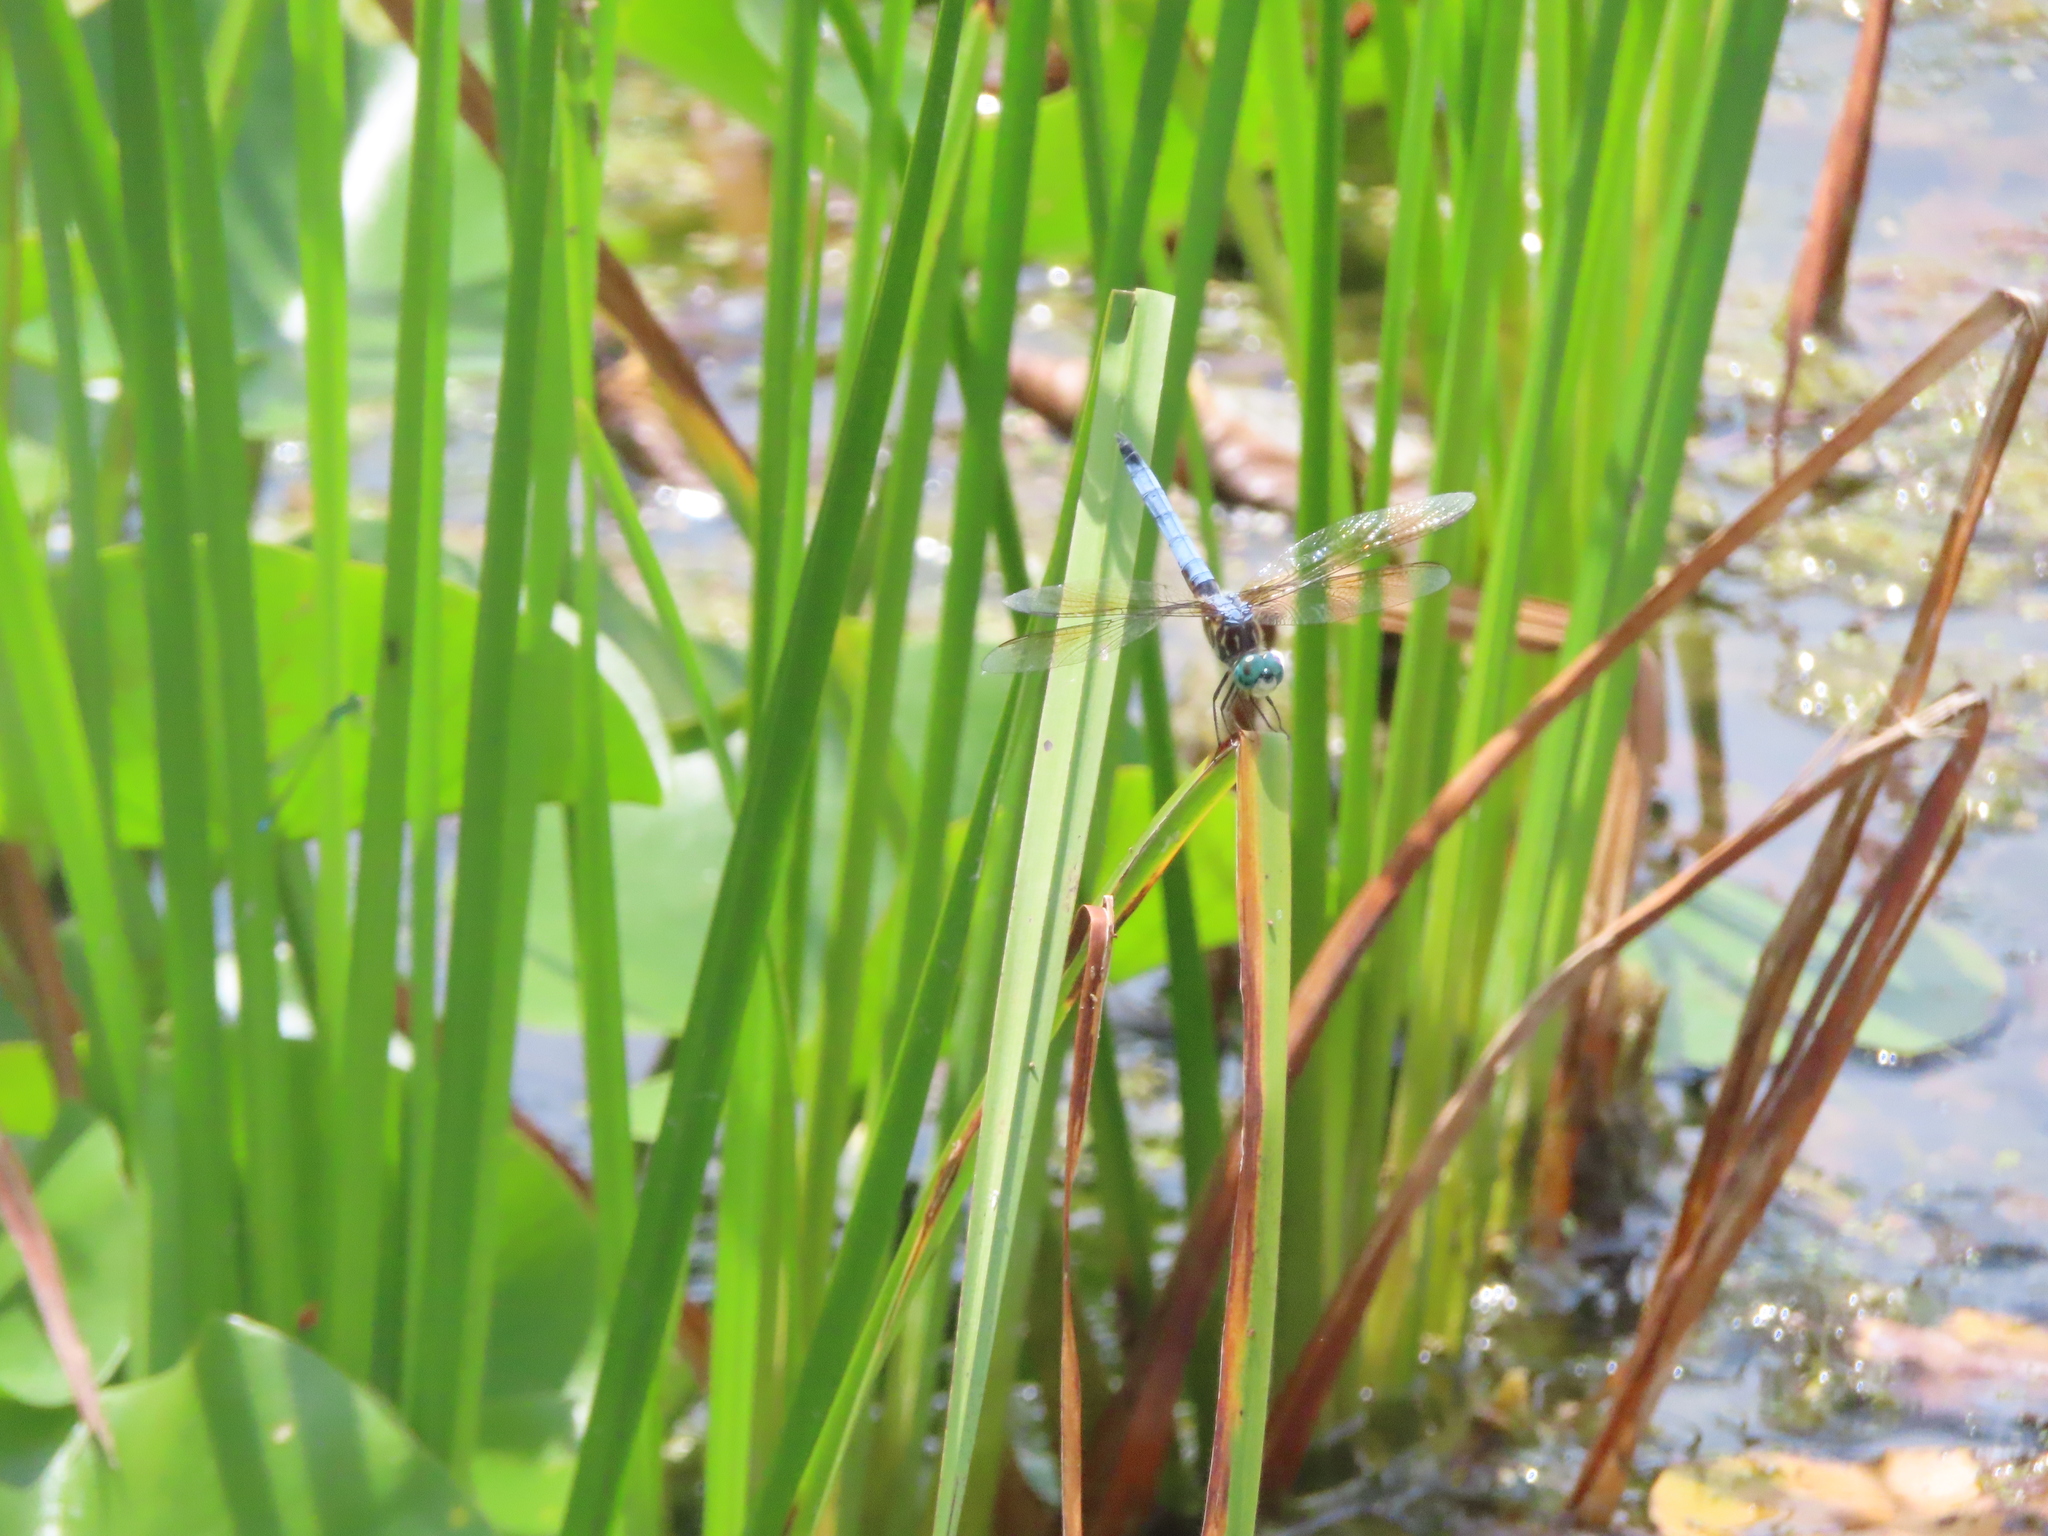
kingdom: Animalia
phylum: Arthropoda
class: Insecta
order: Odonata
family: Libellulidae
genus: Pachydiplax
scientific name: Pachydiplax longipennis
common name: Blue dasher
